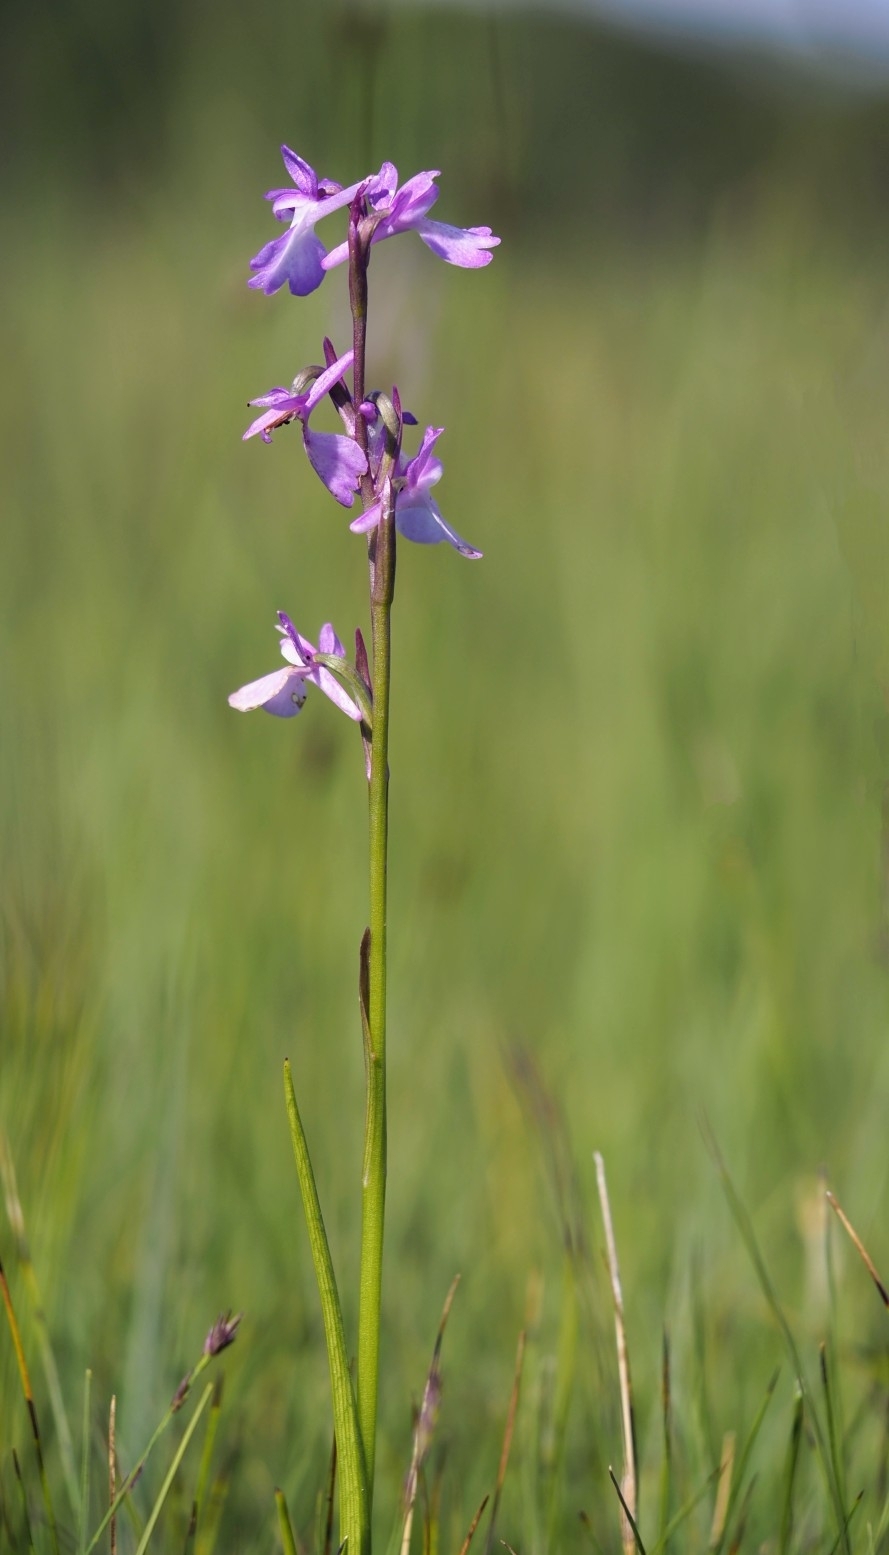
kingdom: Plantae
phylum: Tracheophyta
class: Liliopsida
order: Asparagales
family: Orchidaceae
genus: Anacamptis
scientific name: Anacamptis palustris
